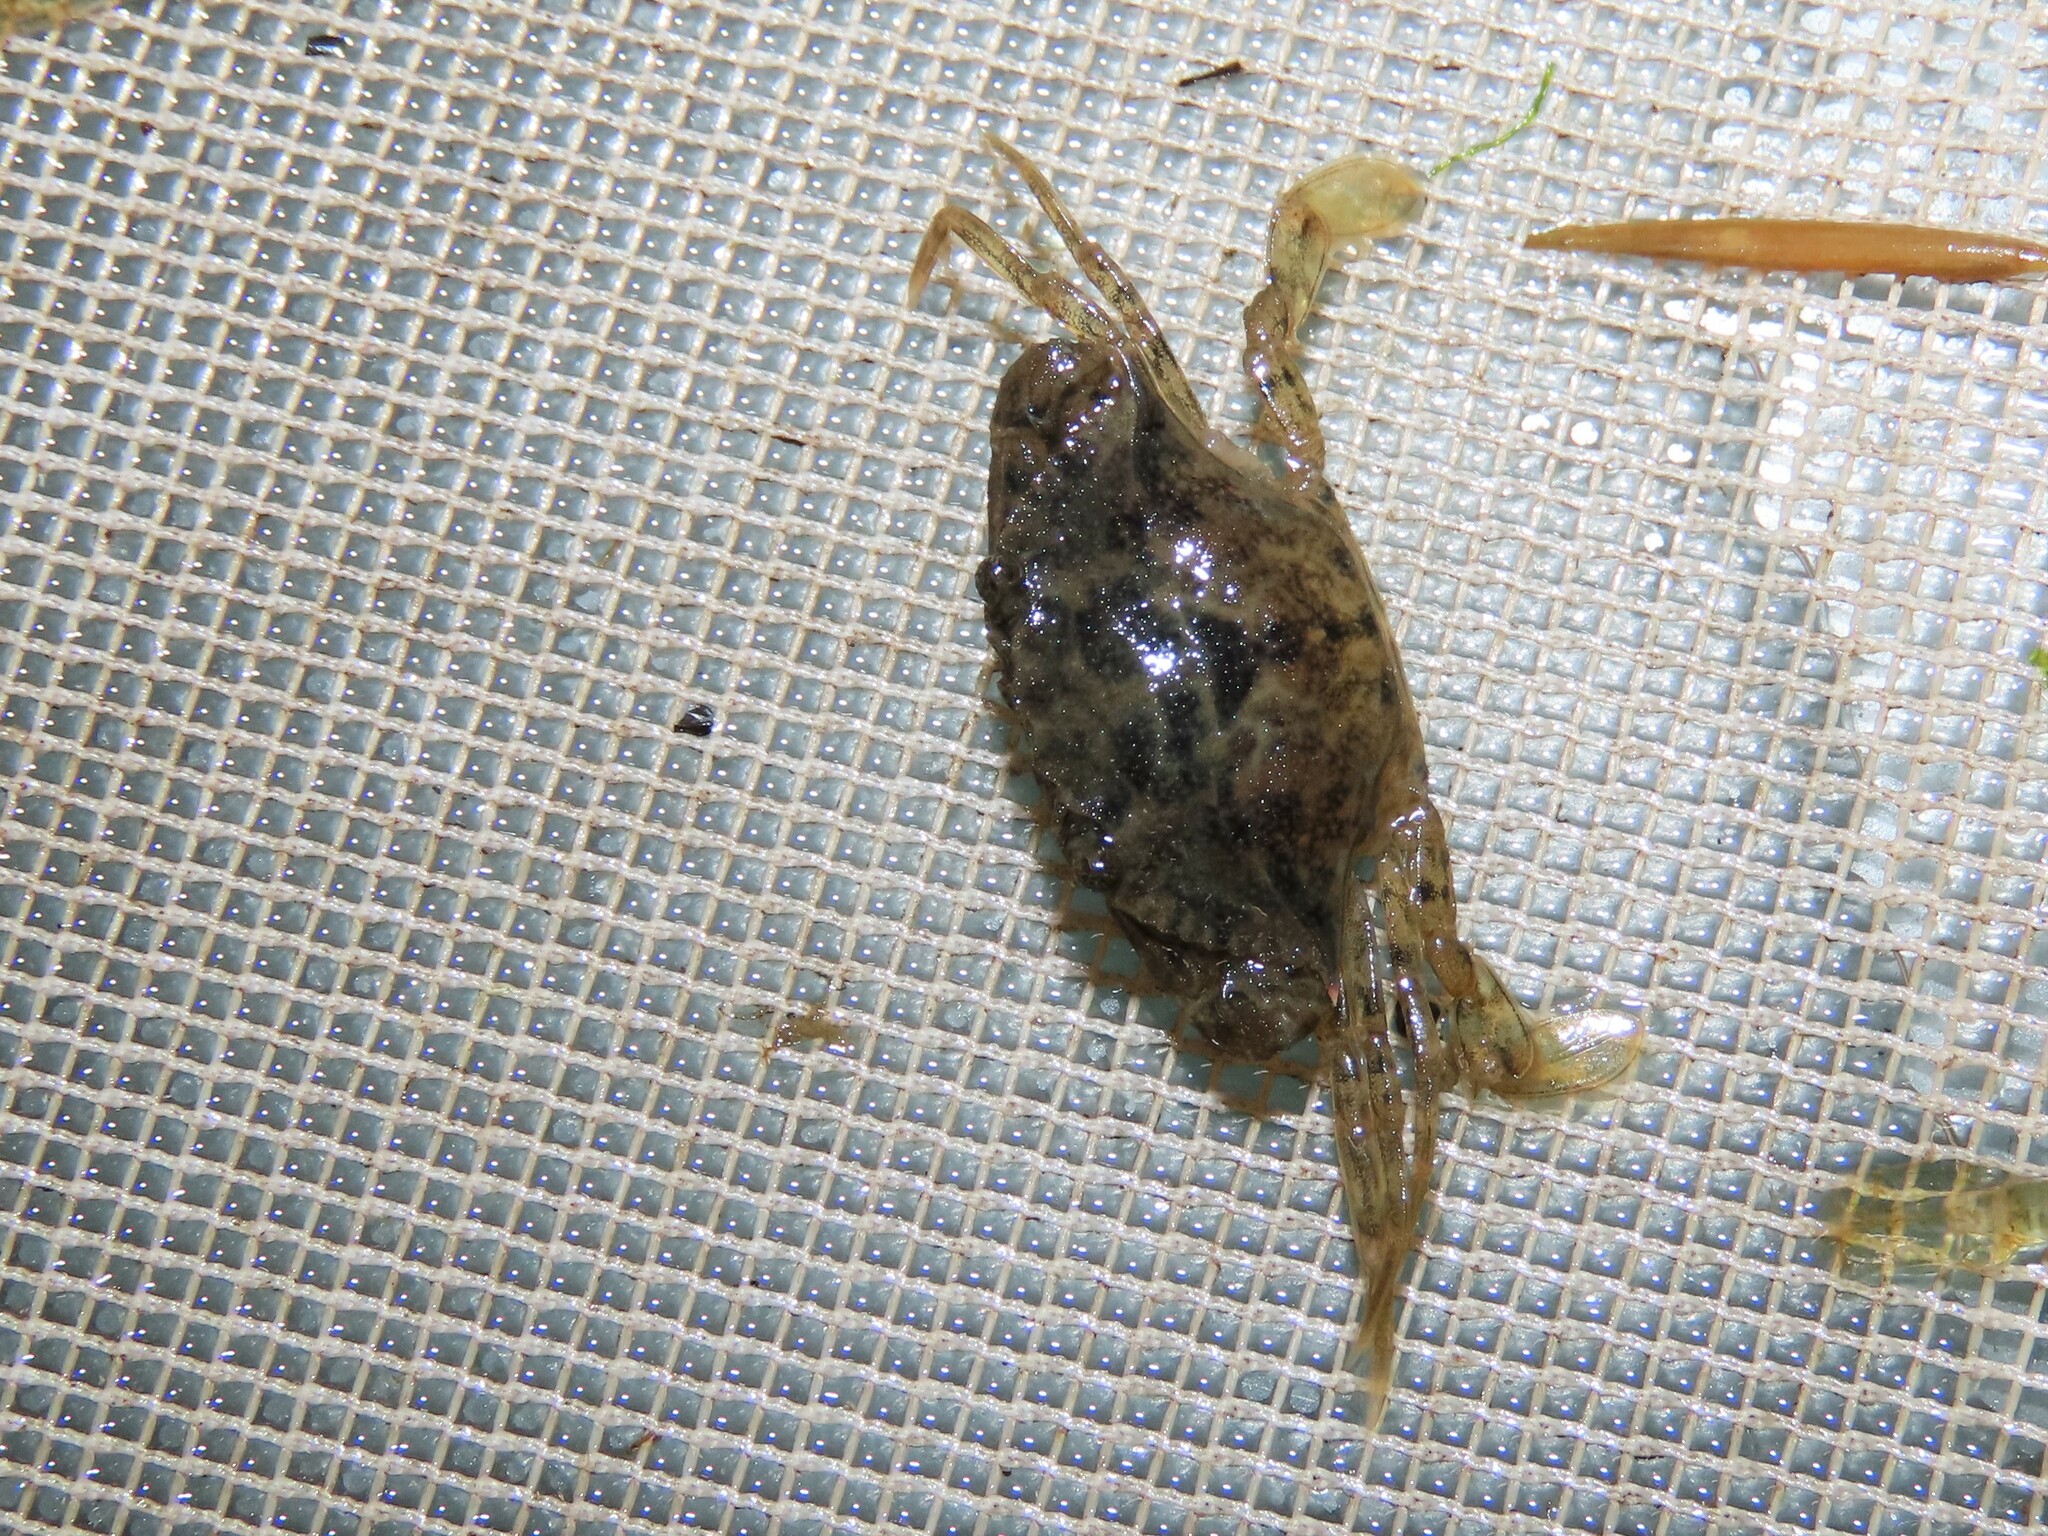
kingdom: Animalia
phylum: Arthropoda
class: Malacostraca
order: Decapoda
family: Portunidae
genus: Callinectes
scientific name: Callinectes sapidus
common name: Blue crab
